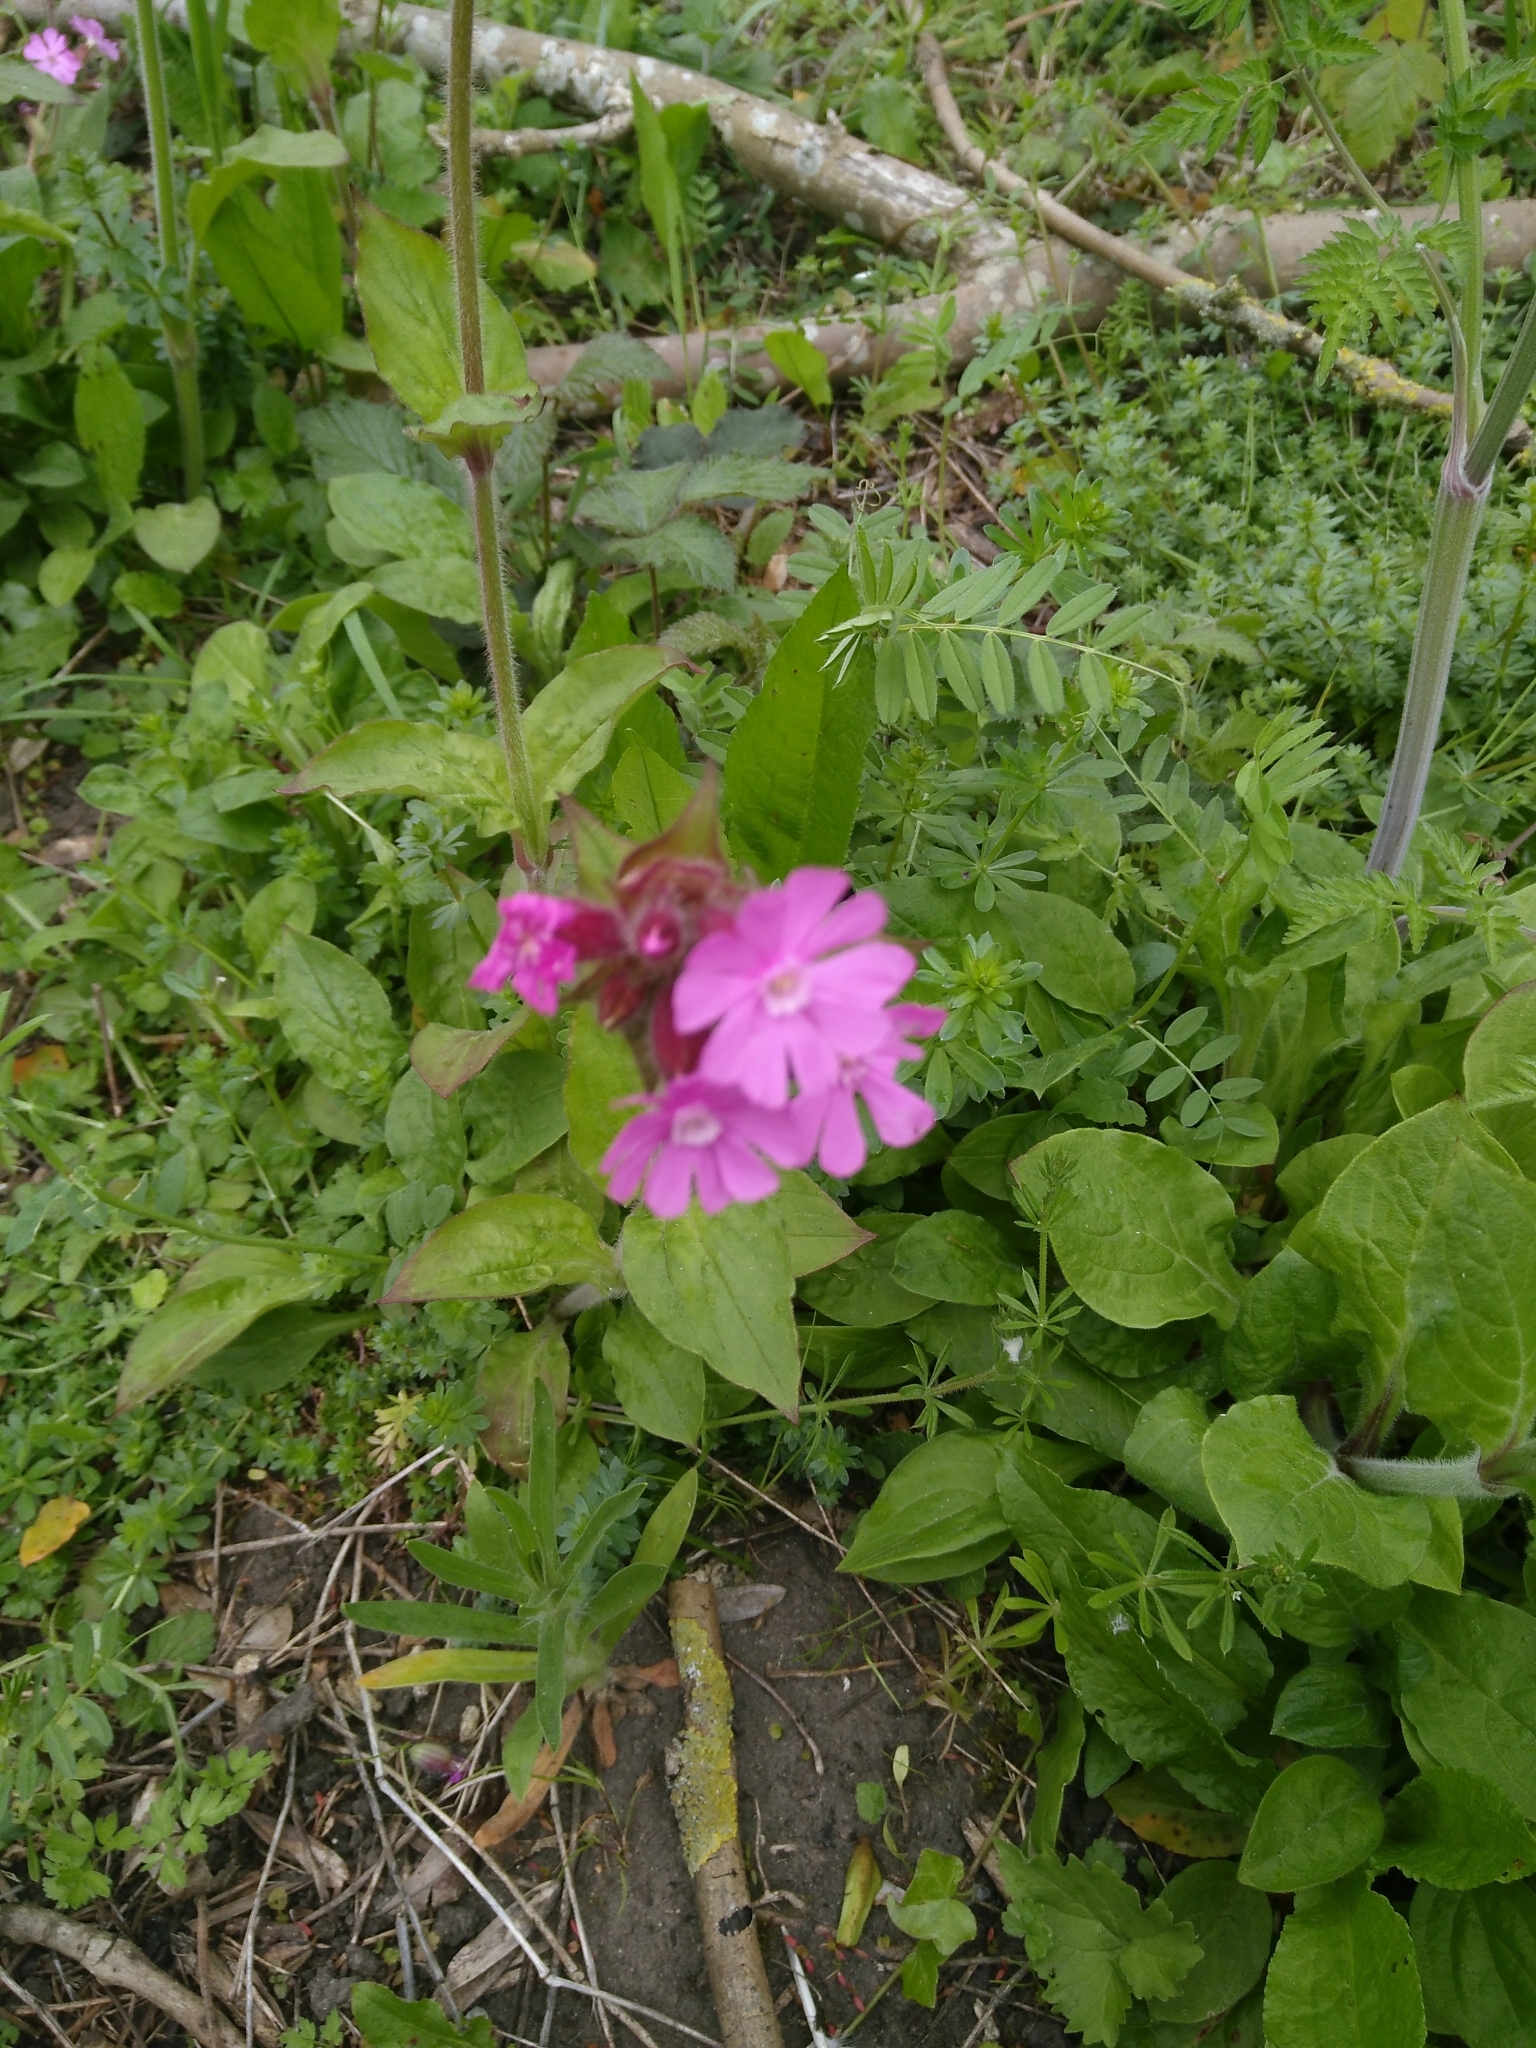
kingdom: Plantae
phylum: Tracheophyta
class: Magnoliopsida
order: Caryophyllales
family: Caryophyllaceae
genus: Silene
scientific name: Silene dioica
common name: Red campion
